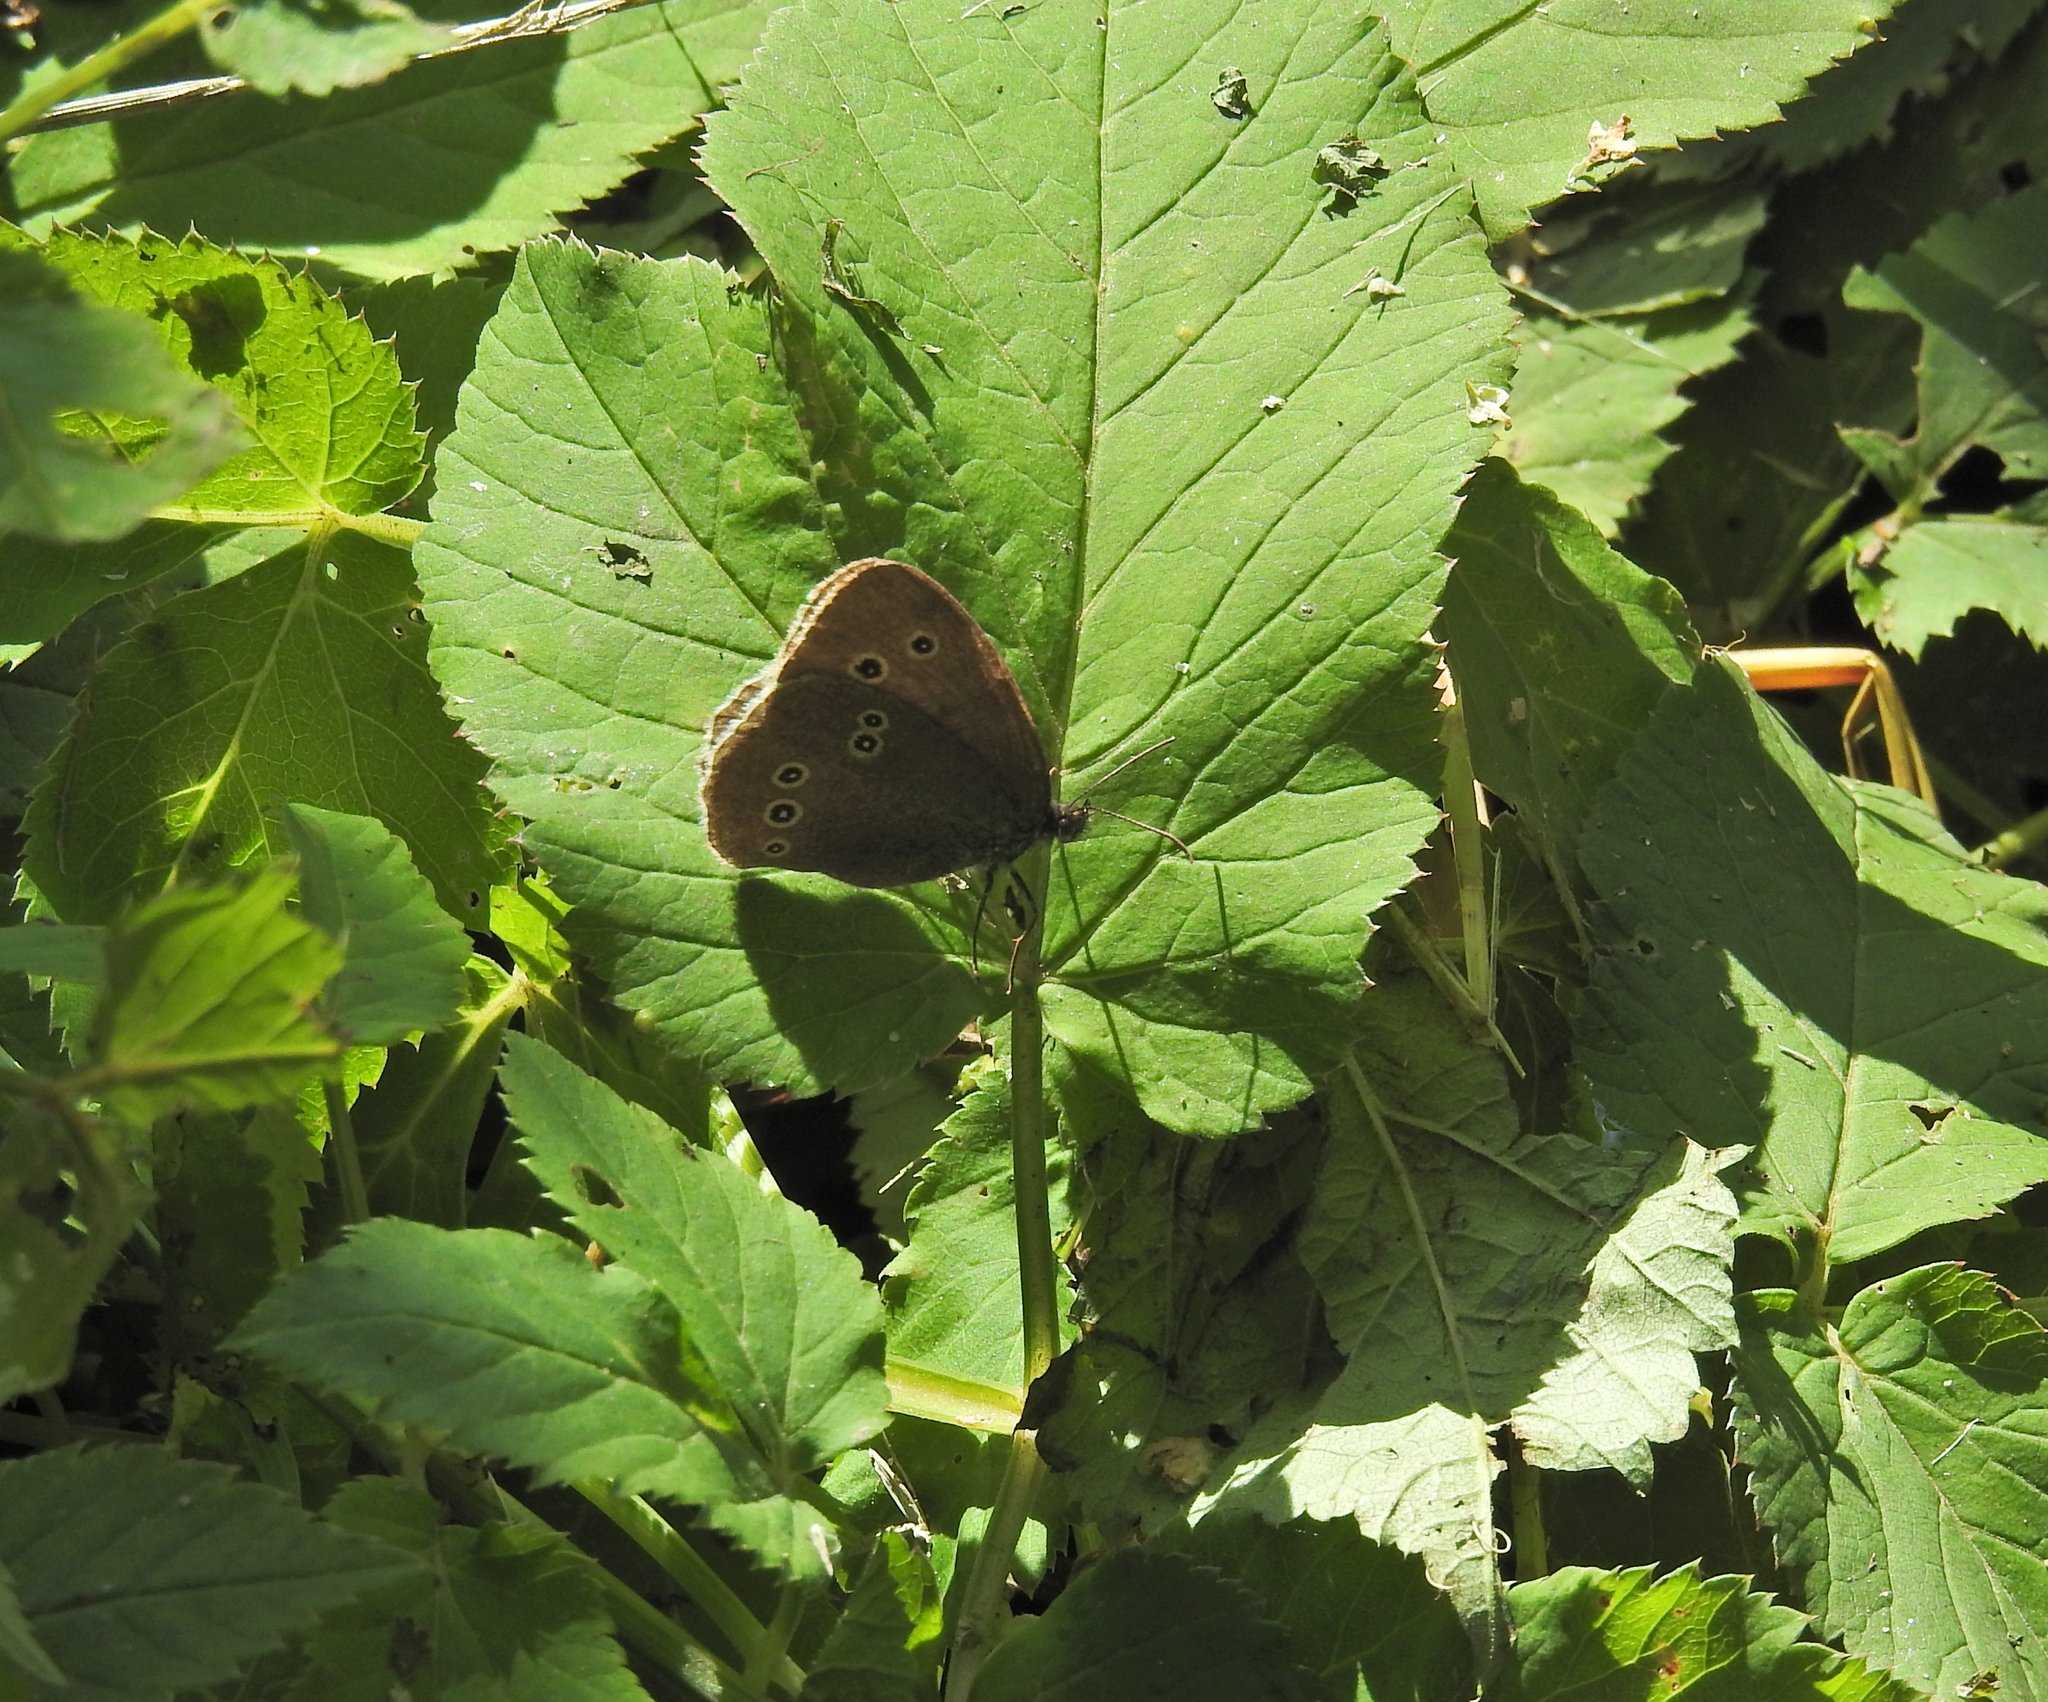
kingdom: Animalia
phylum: Arthropoda
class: Insecta
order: Lepidoptera
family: Nymphalidae
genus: Aphantopus
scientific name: Aphantopus hyperantus
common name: Ringlet
